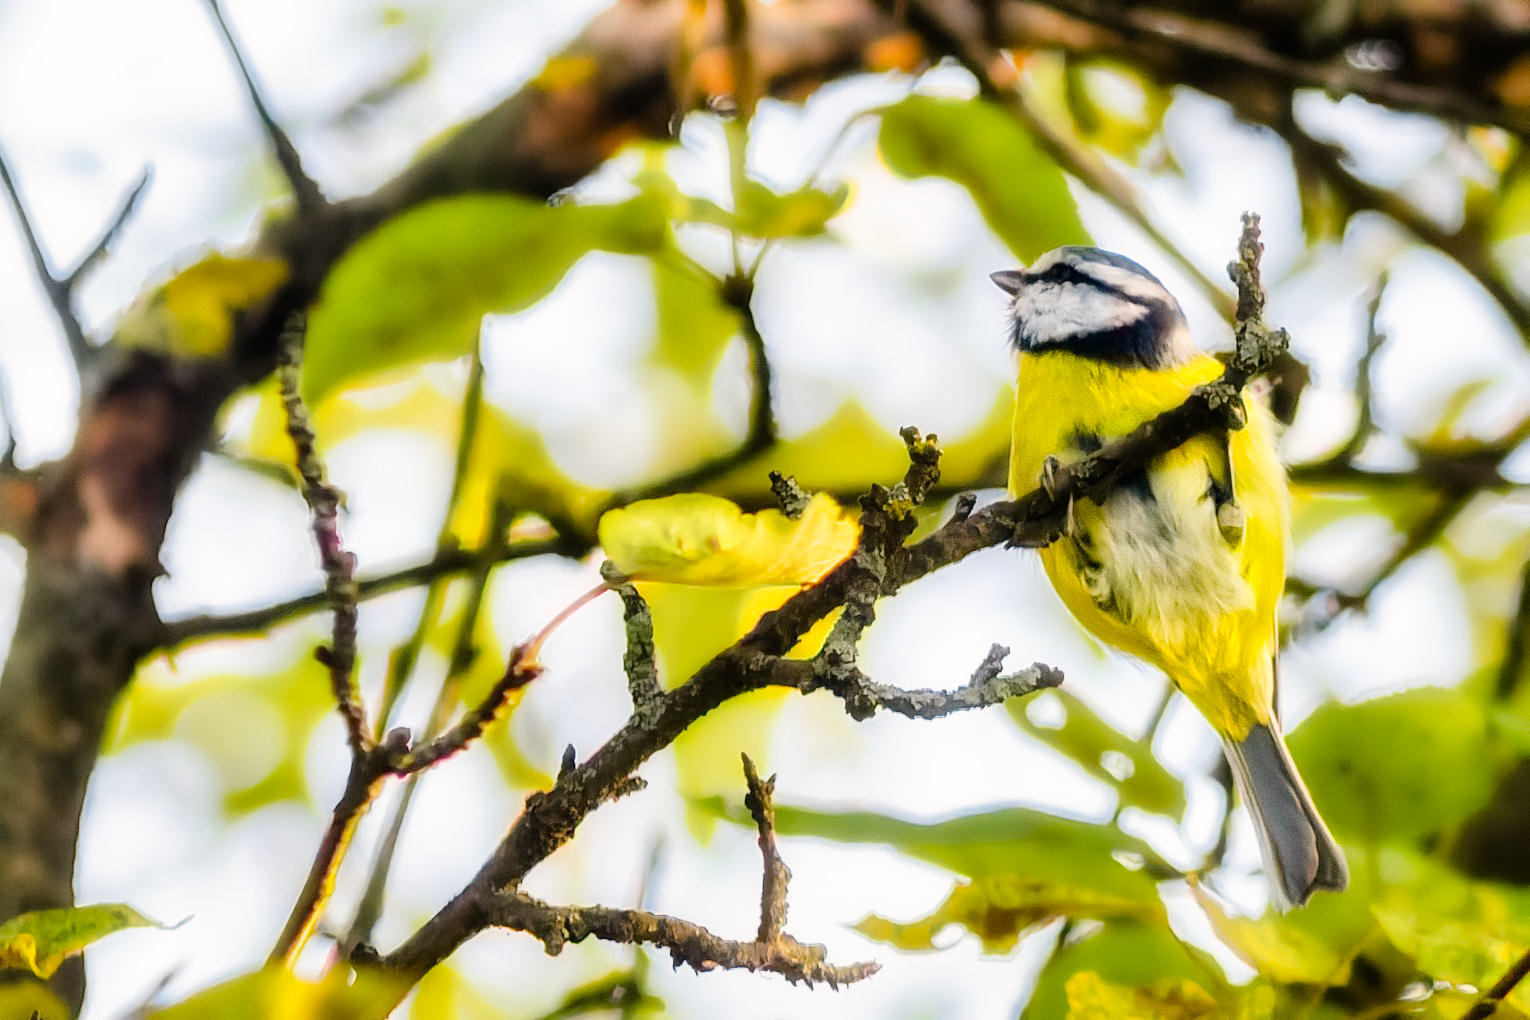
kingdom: Animalia
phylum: Chordata
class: Aves
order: Passeriformes
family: Paridae
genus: Cyanistes
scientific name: Cyanistes caeruleus
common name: Eurasian blue tit
